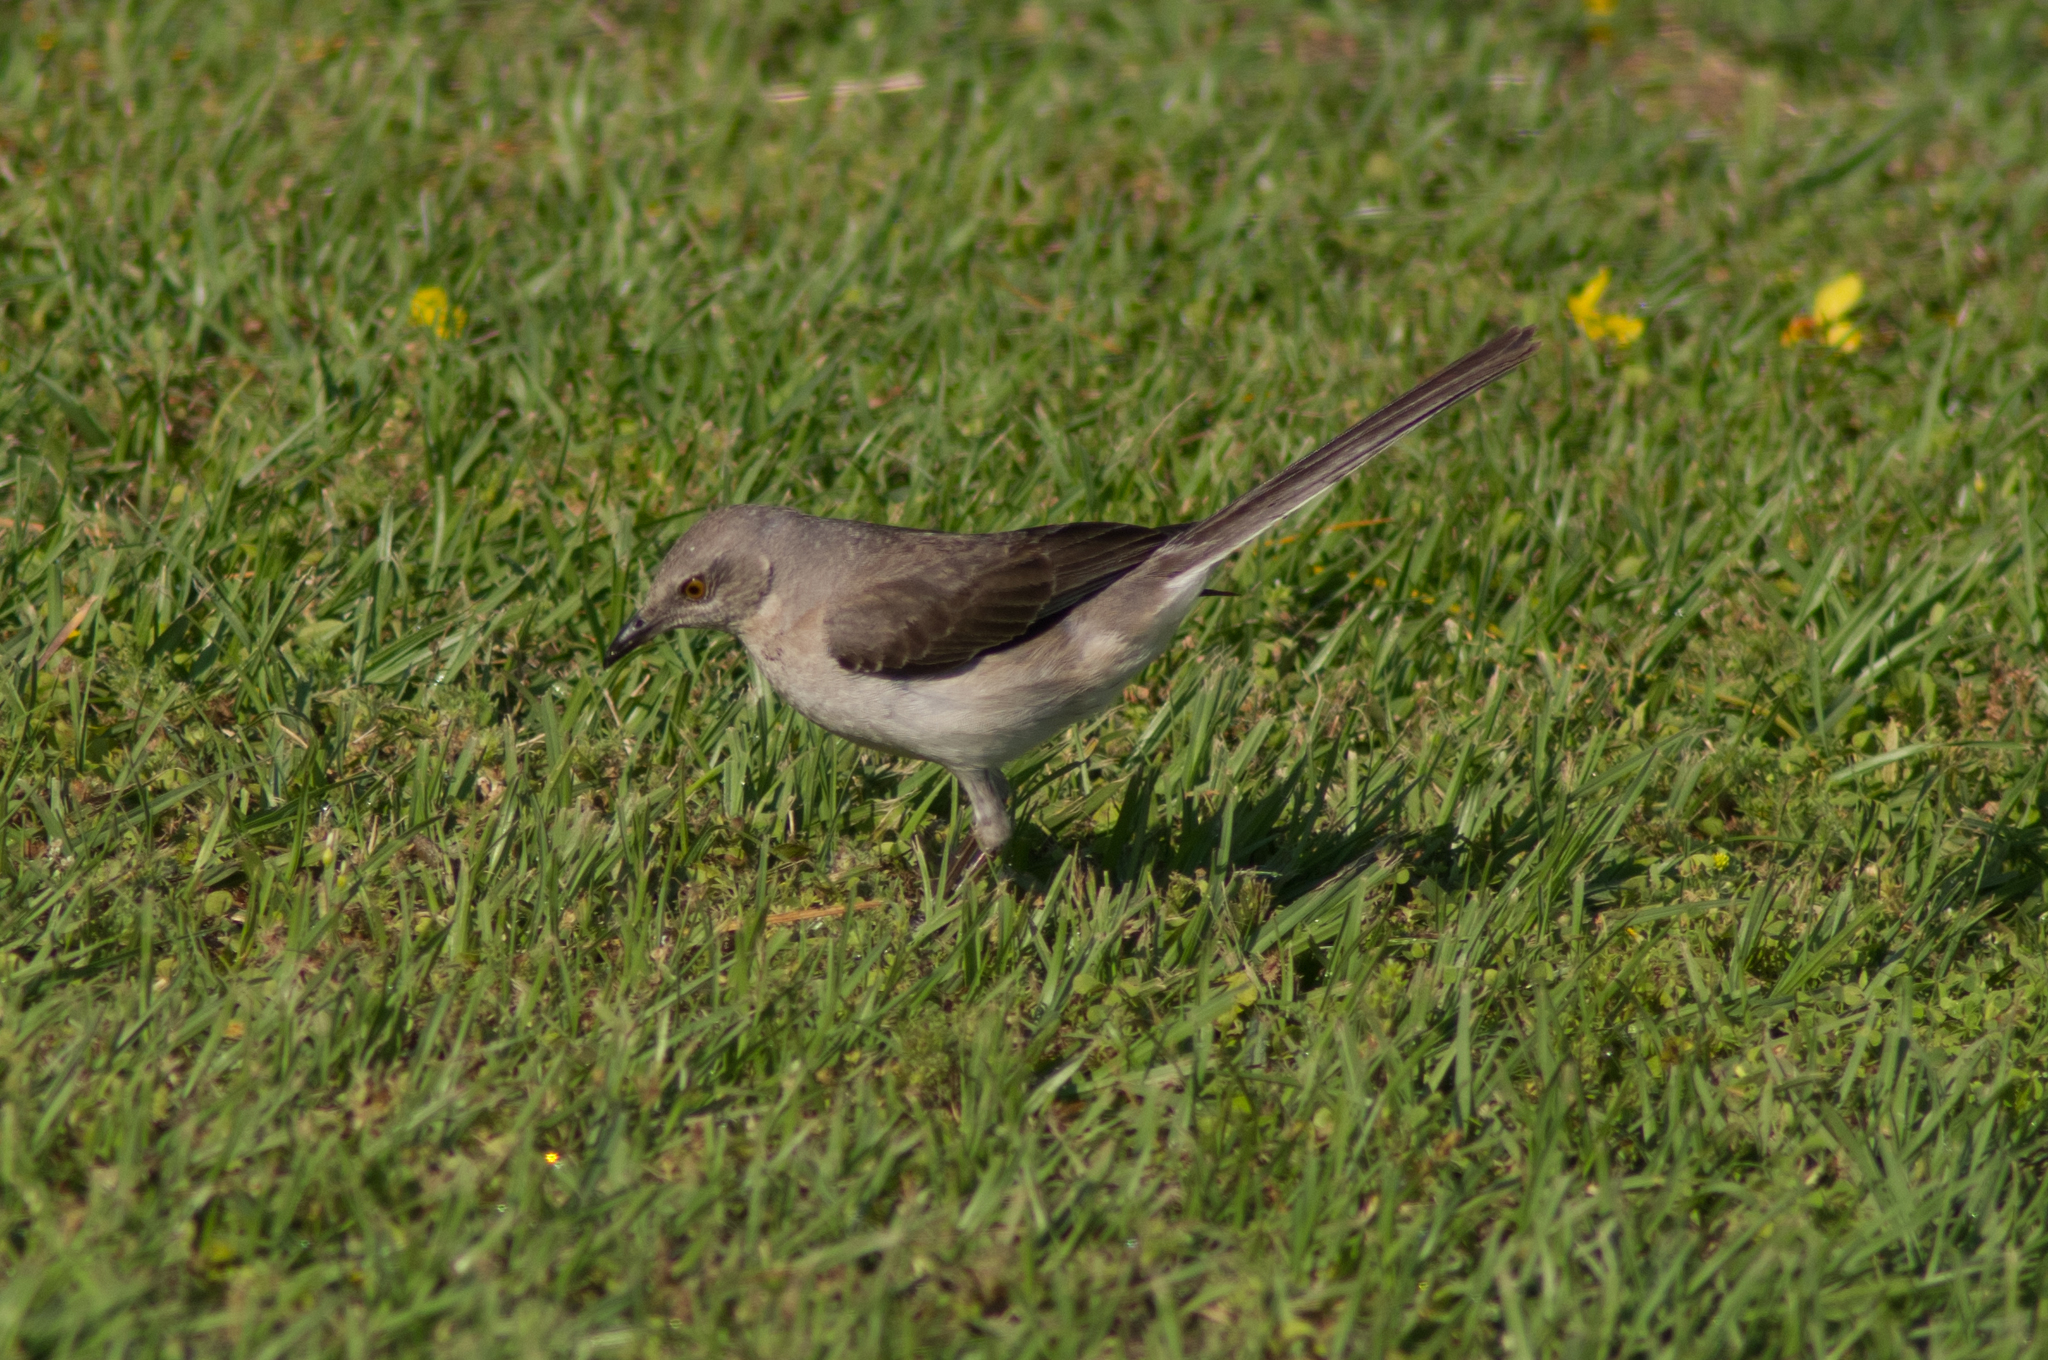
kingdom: Animalia
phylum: Chordata
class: Aves
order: Passeriformes
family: Mimidae
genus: Mimus
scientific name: Mimus polyglottos
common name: Northern mockingbird
